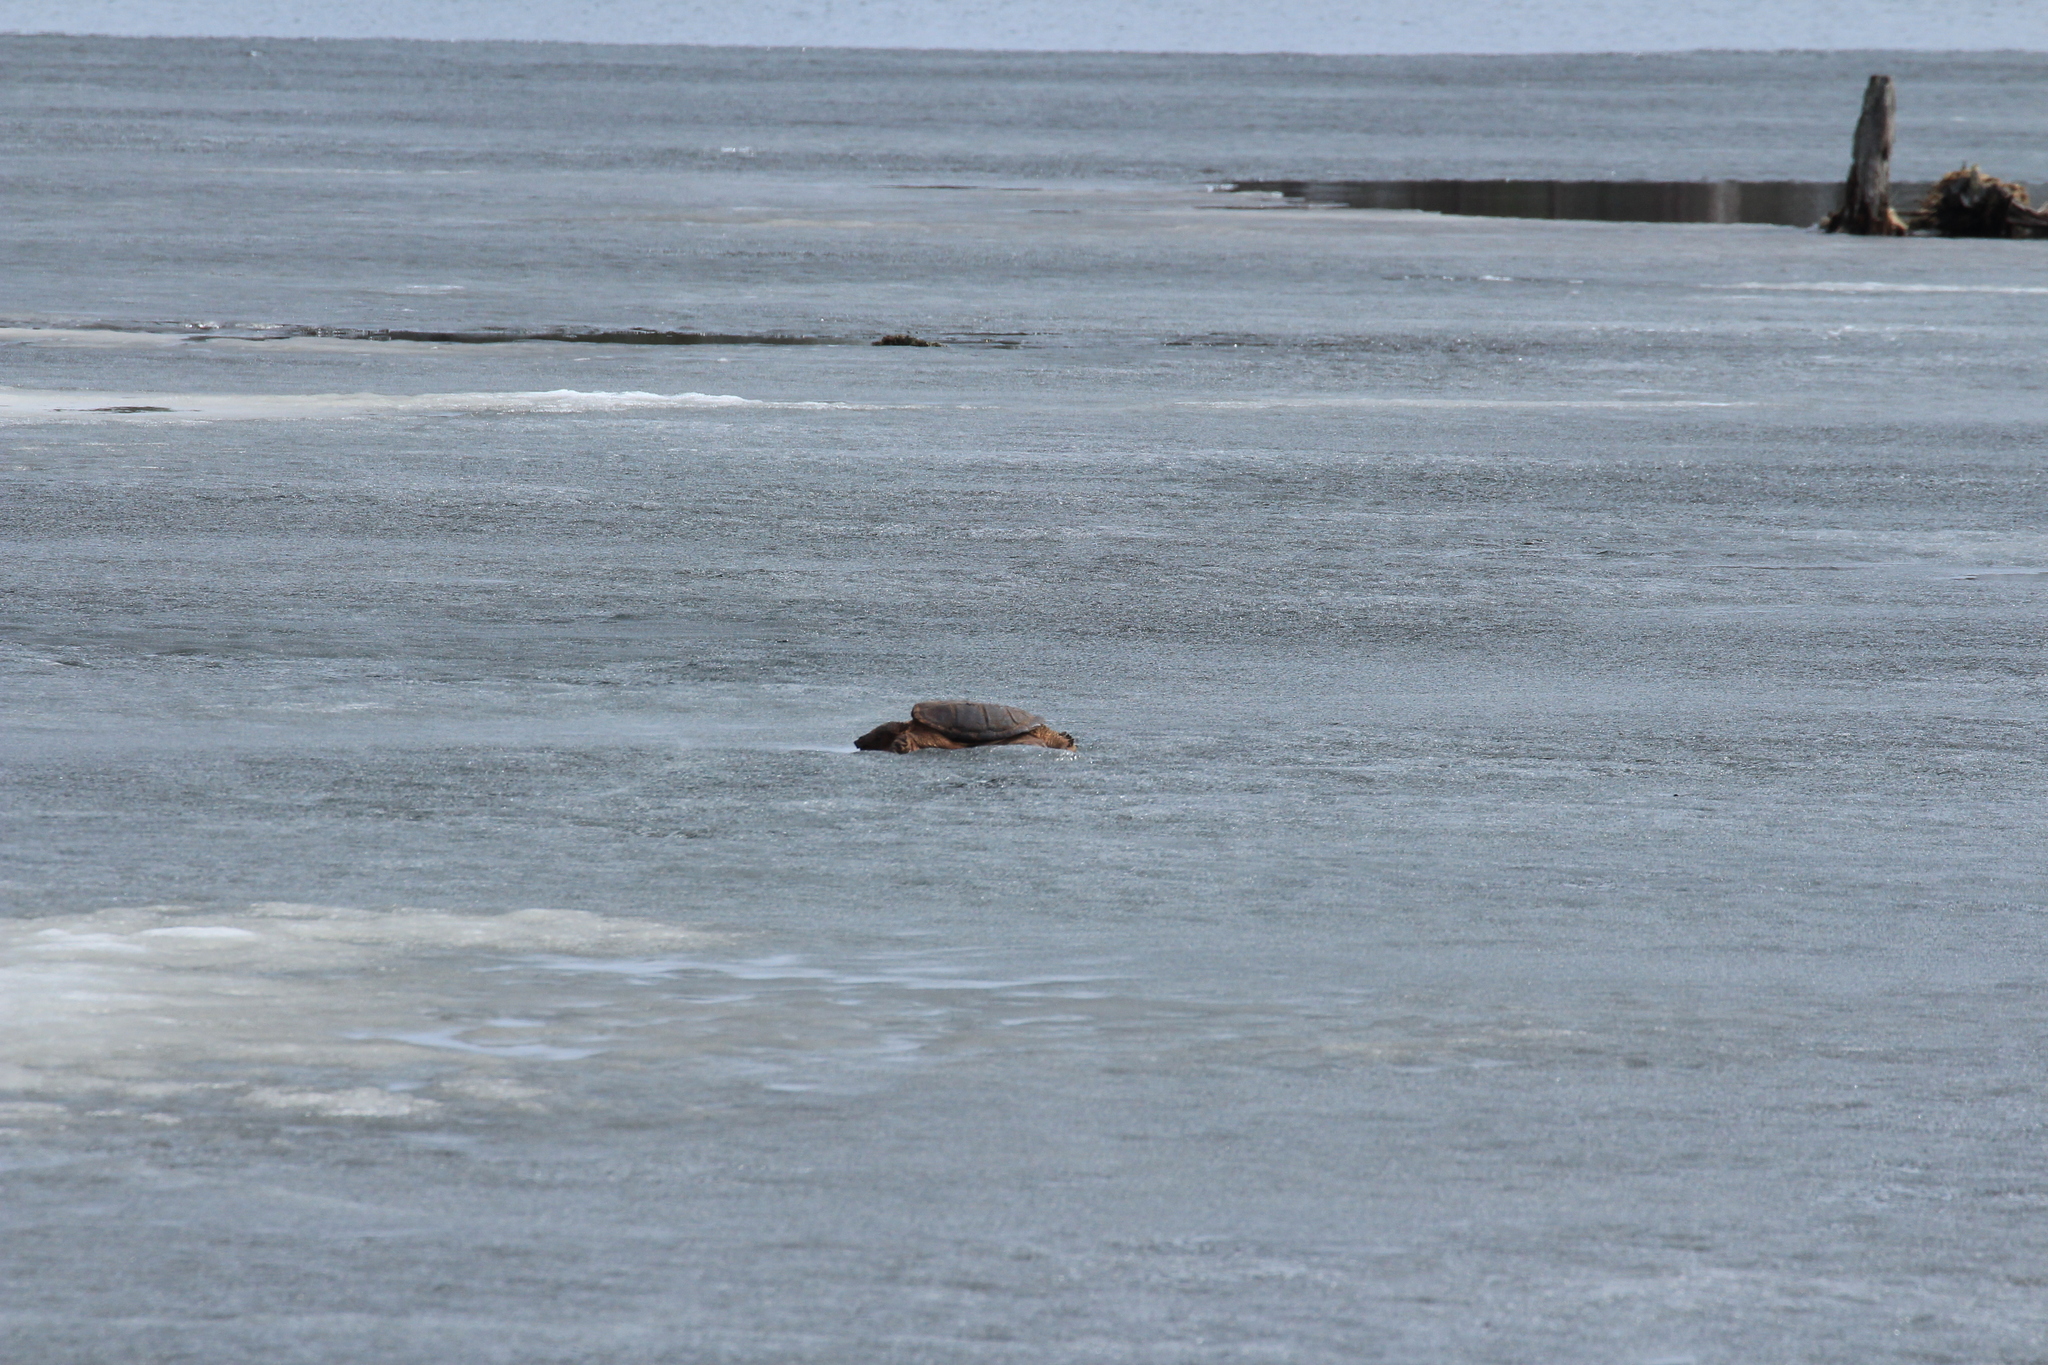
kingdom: Animalia
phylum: Chordata
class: Testudines
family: Chelydridae
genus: Chelydra
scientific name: Chelydra serpentina
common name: Common snapping turtle
